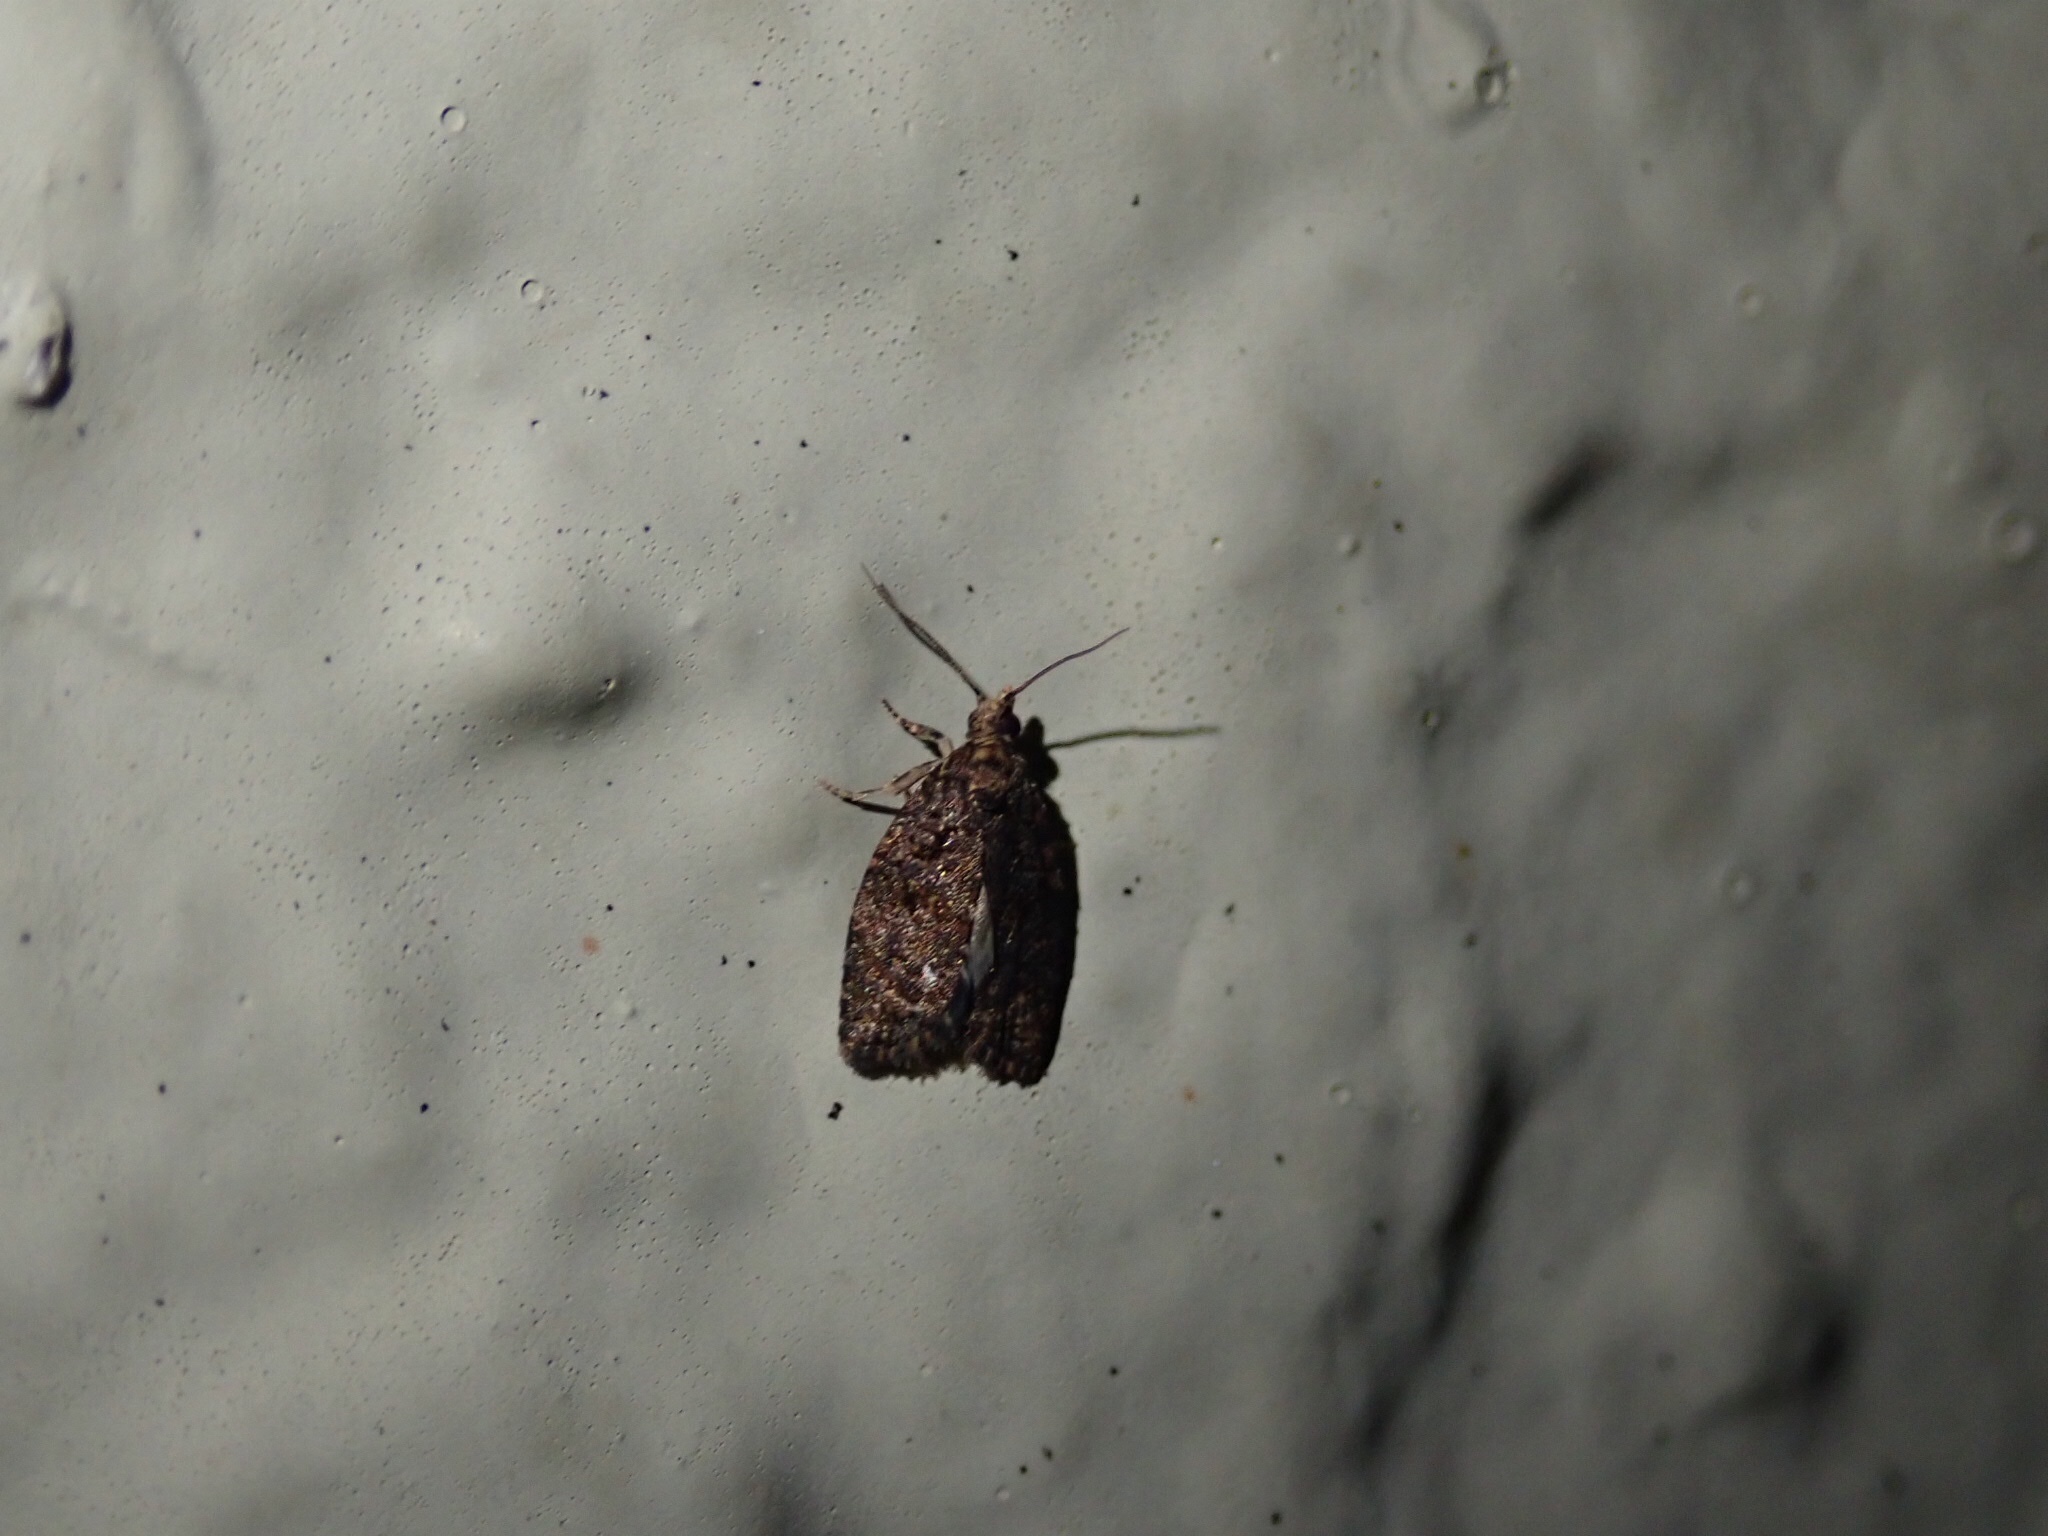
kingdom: Animalia
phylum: Arthropoda
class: Insecta
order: Lepidoptera
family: Tortricidae
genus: Capua
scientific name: Capua intractana
